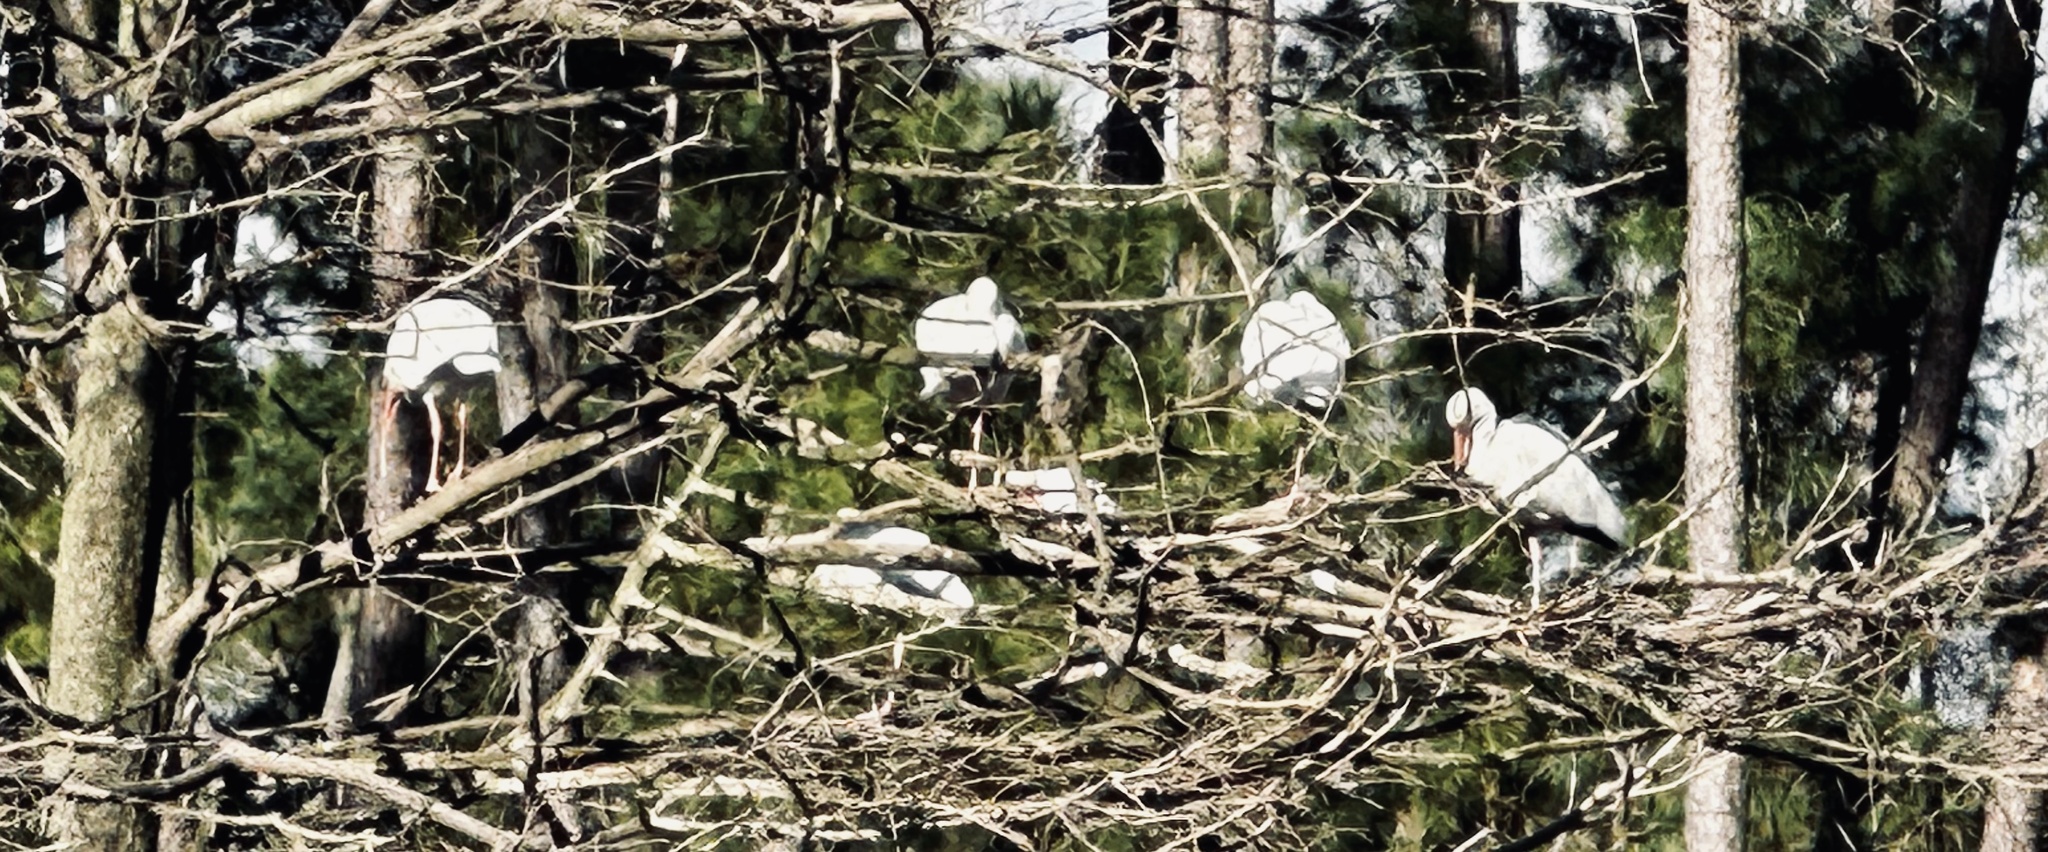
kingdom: Animalia
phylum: Chordata
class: Aves
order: Pelecaniformes
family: Threskiornithidae
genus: Eudocimus
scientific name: Eudocimus albus
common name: White ibis
